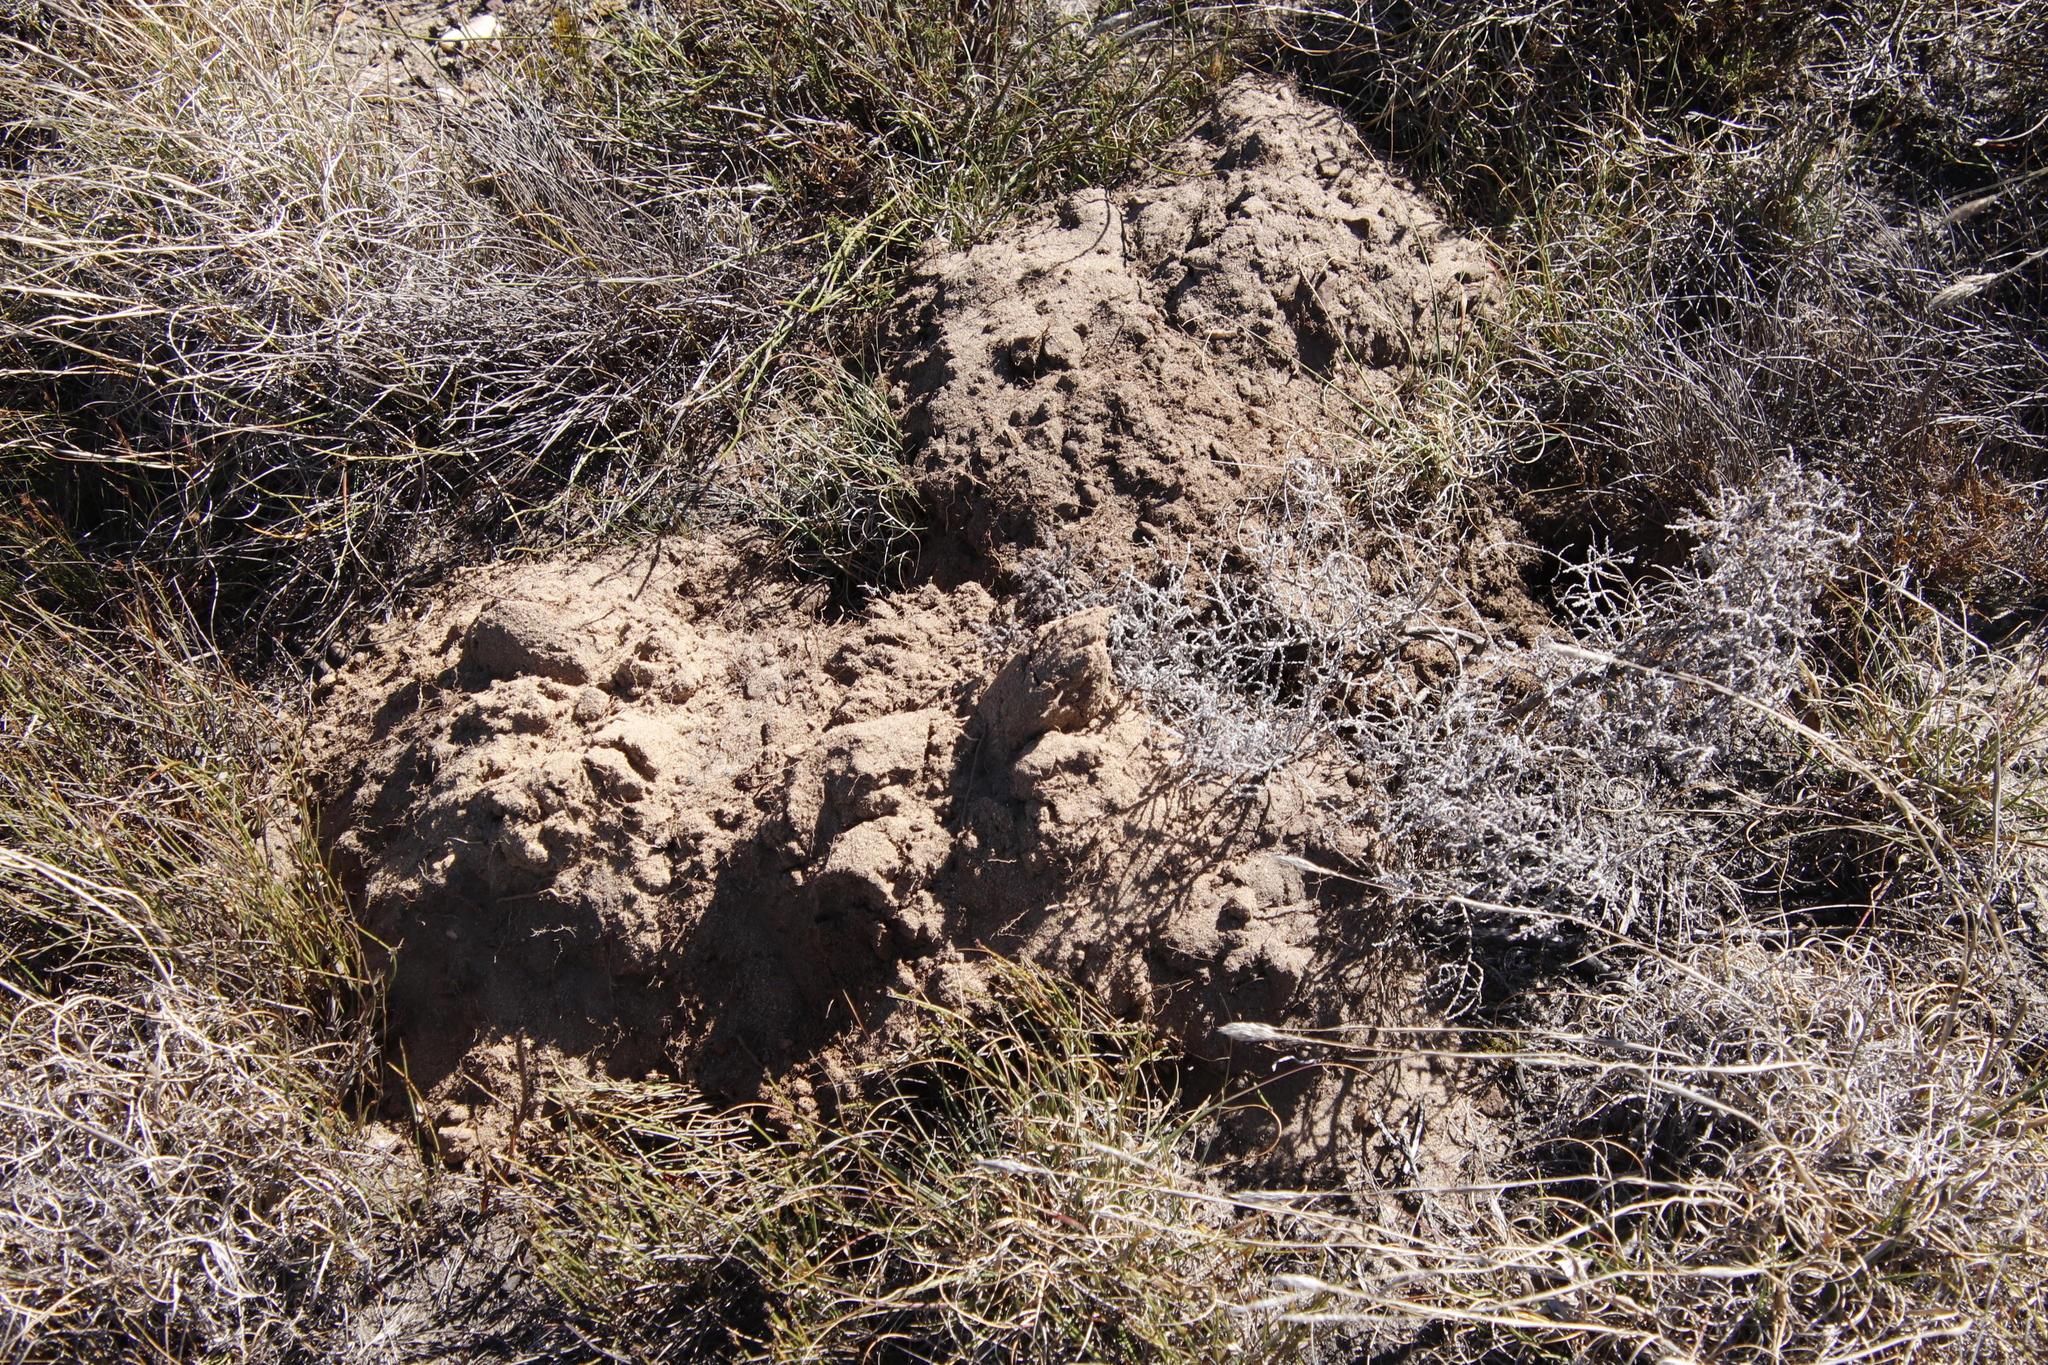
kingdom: Animalia
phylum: Chordata
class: Mammalia
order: Rodentia
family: Bathyergidae
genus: Georychus
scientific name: Georychus capensis
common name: Cape mole-rat
